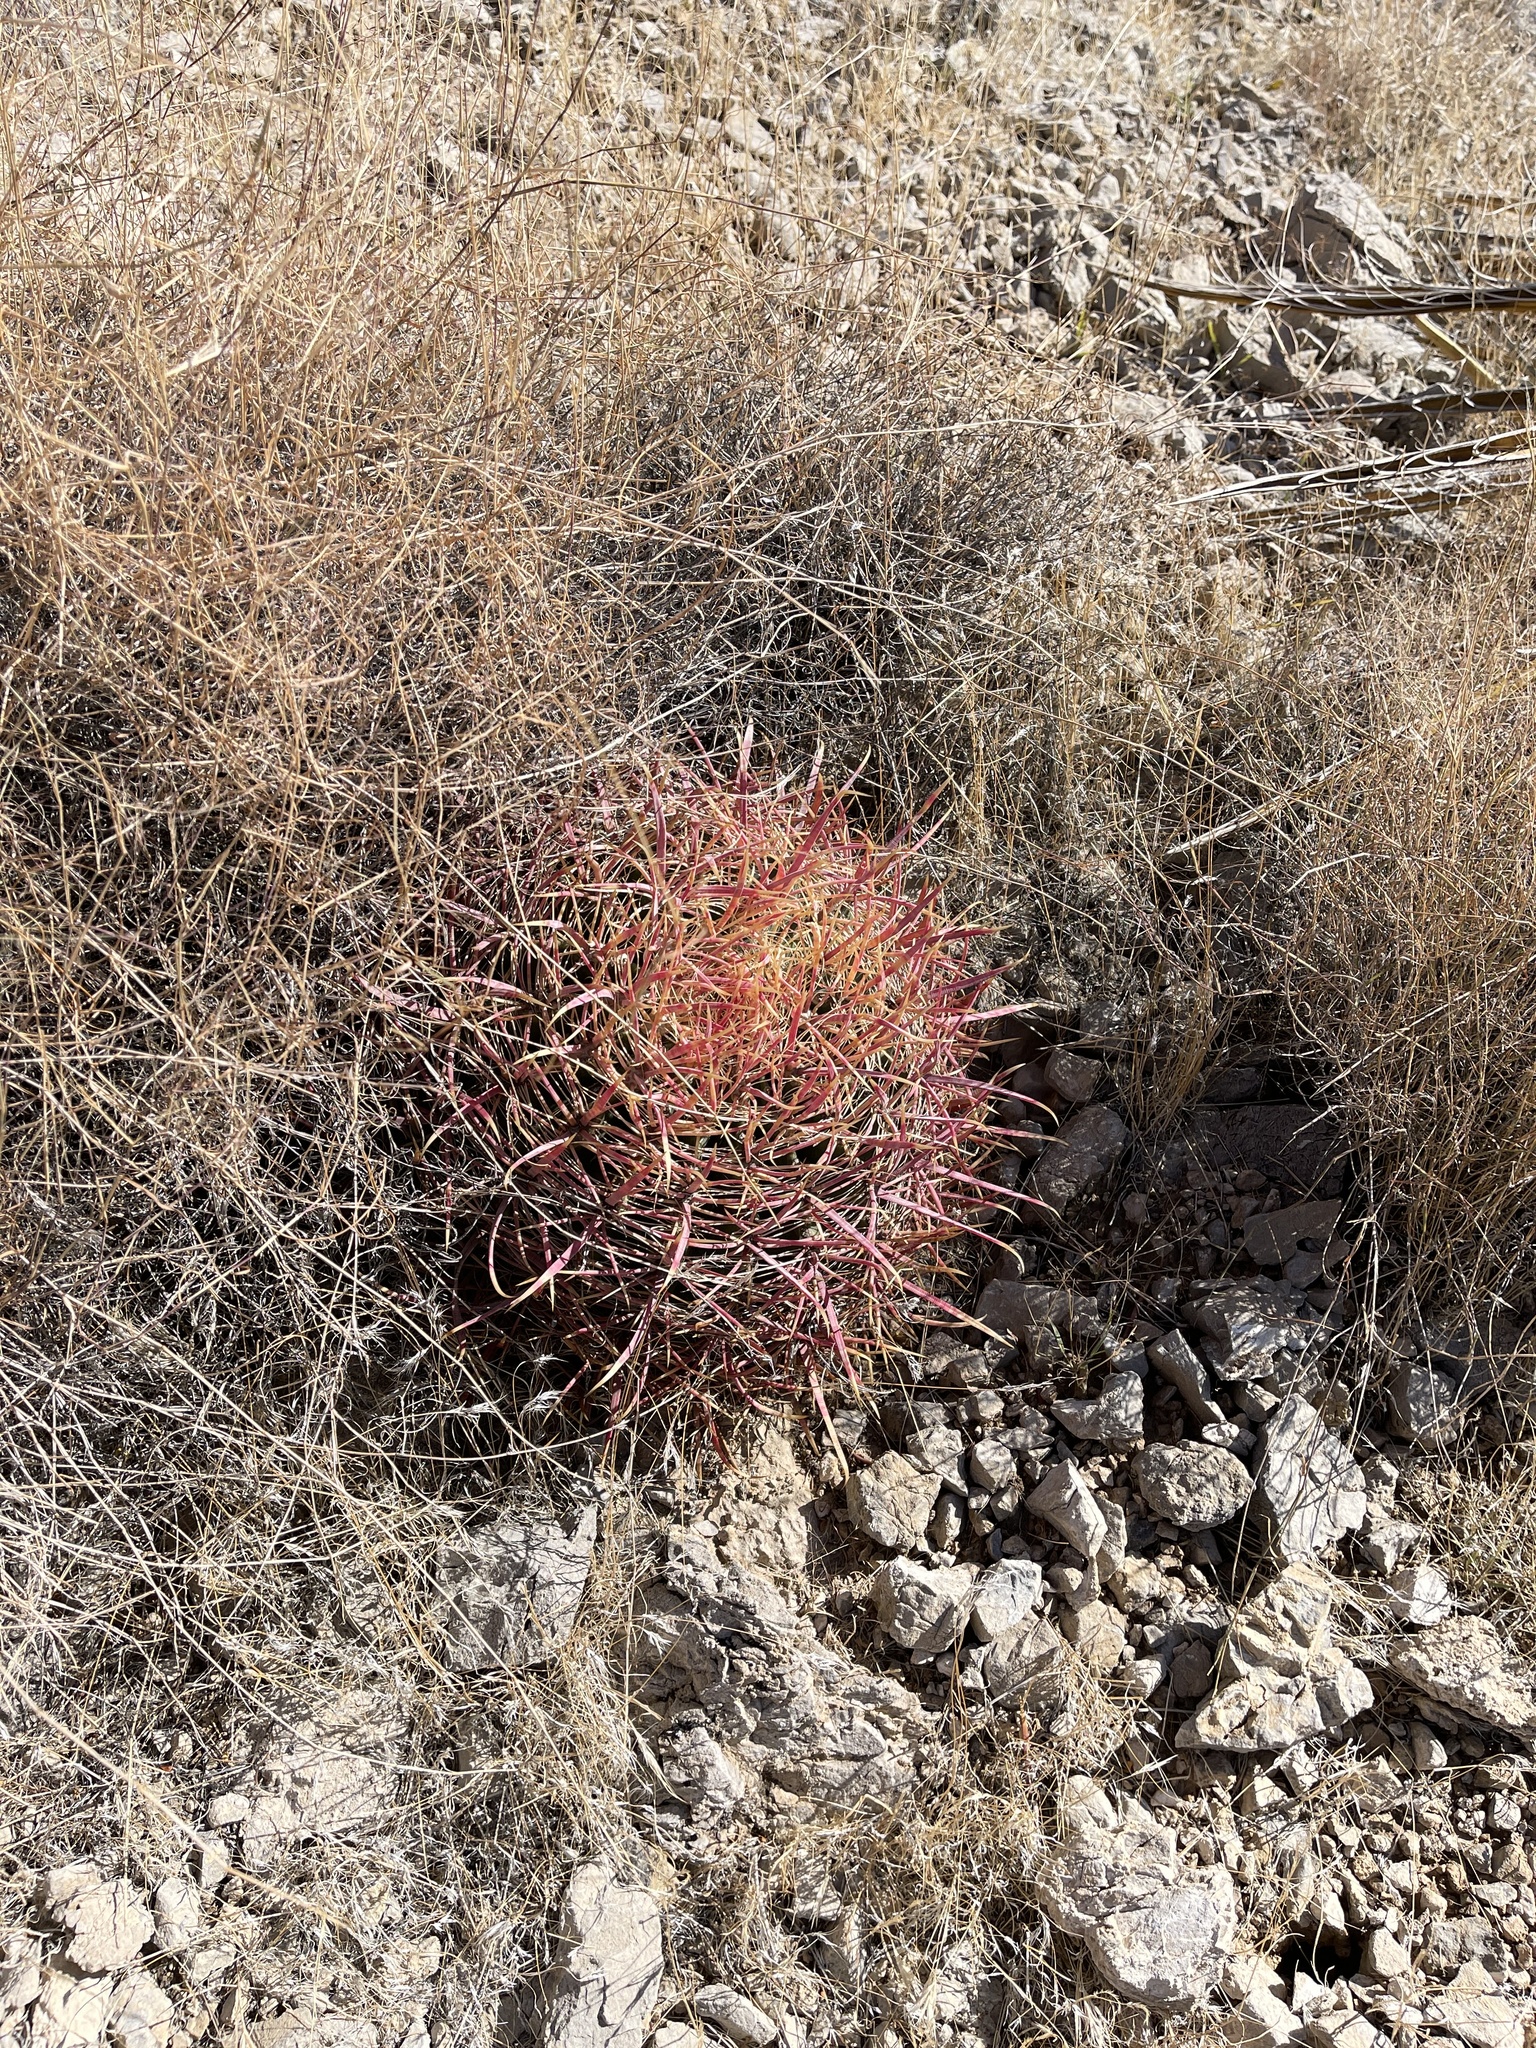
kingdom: Plantae
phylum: Tracheophyta
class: Magnoliopsida
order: Caryophyllales
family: Cactaceae
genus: Ferocactus
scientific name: Ferocactus cylindraceus
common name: California barrel cactus
